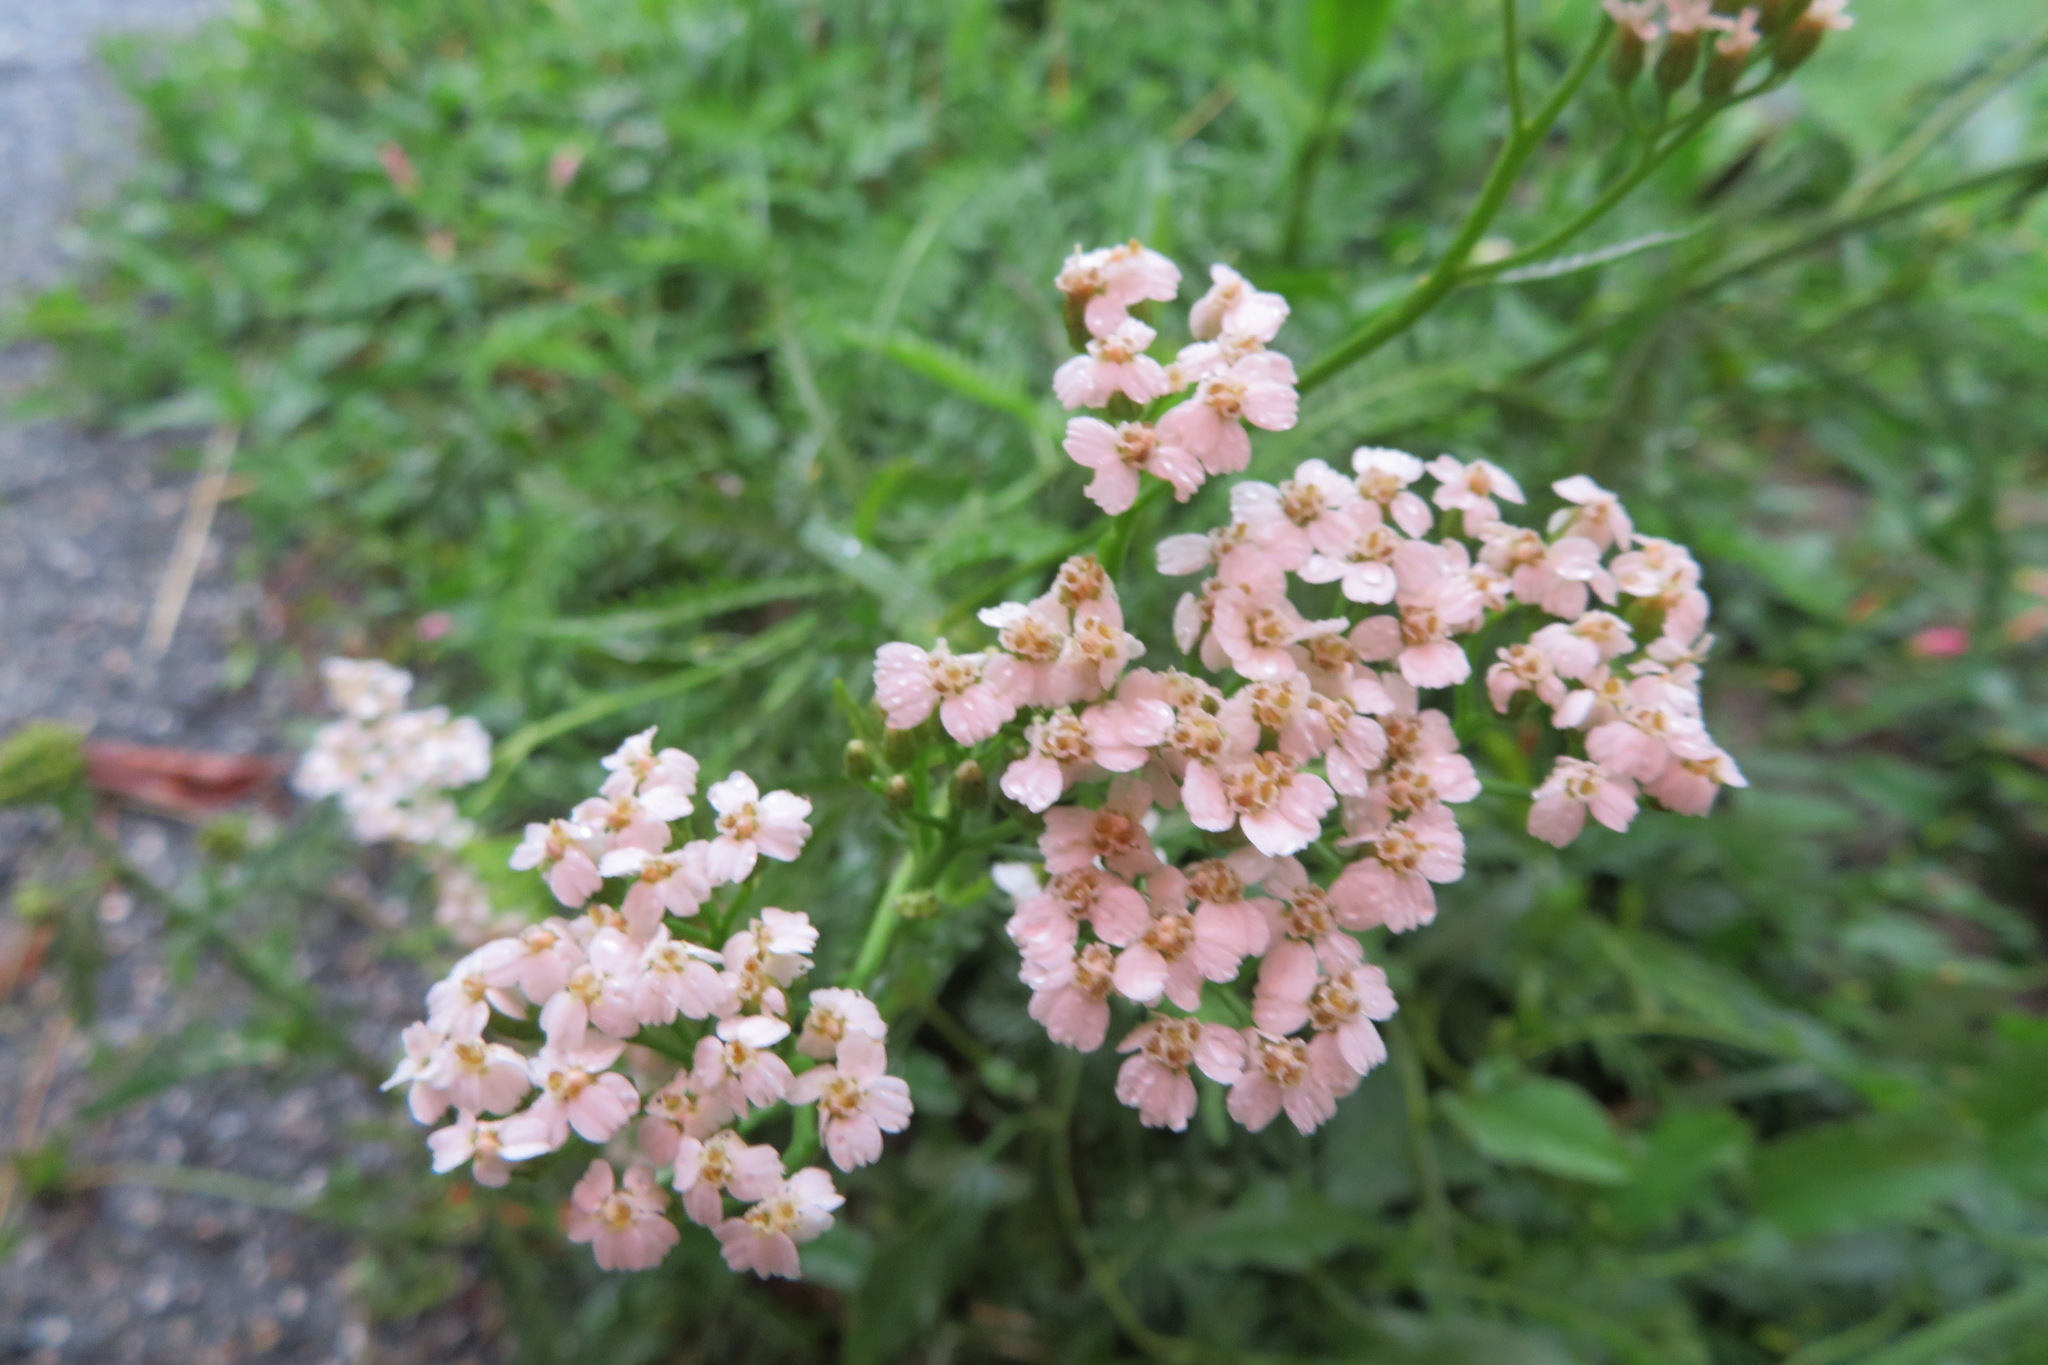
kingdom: Plantae
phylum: Tracheophyta
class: Magnoliopsida
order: Asterales
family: Asteraceae
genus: Achillea
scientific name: Achillea millefolium
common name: Yarrow
